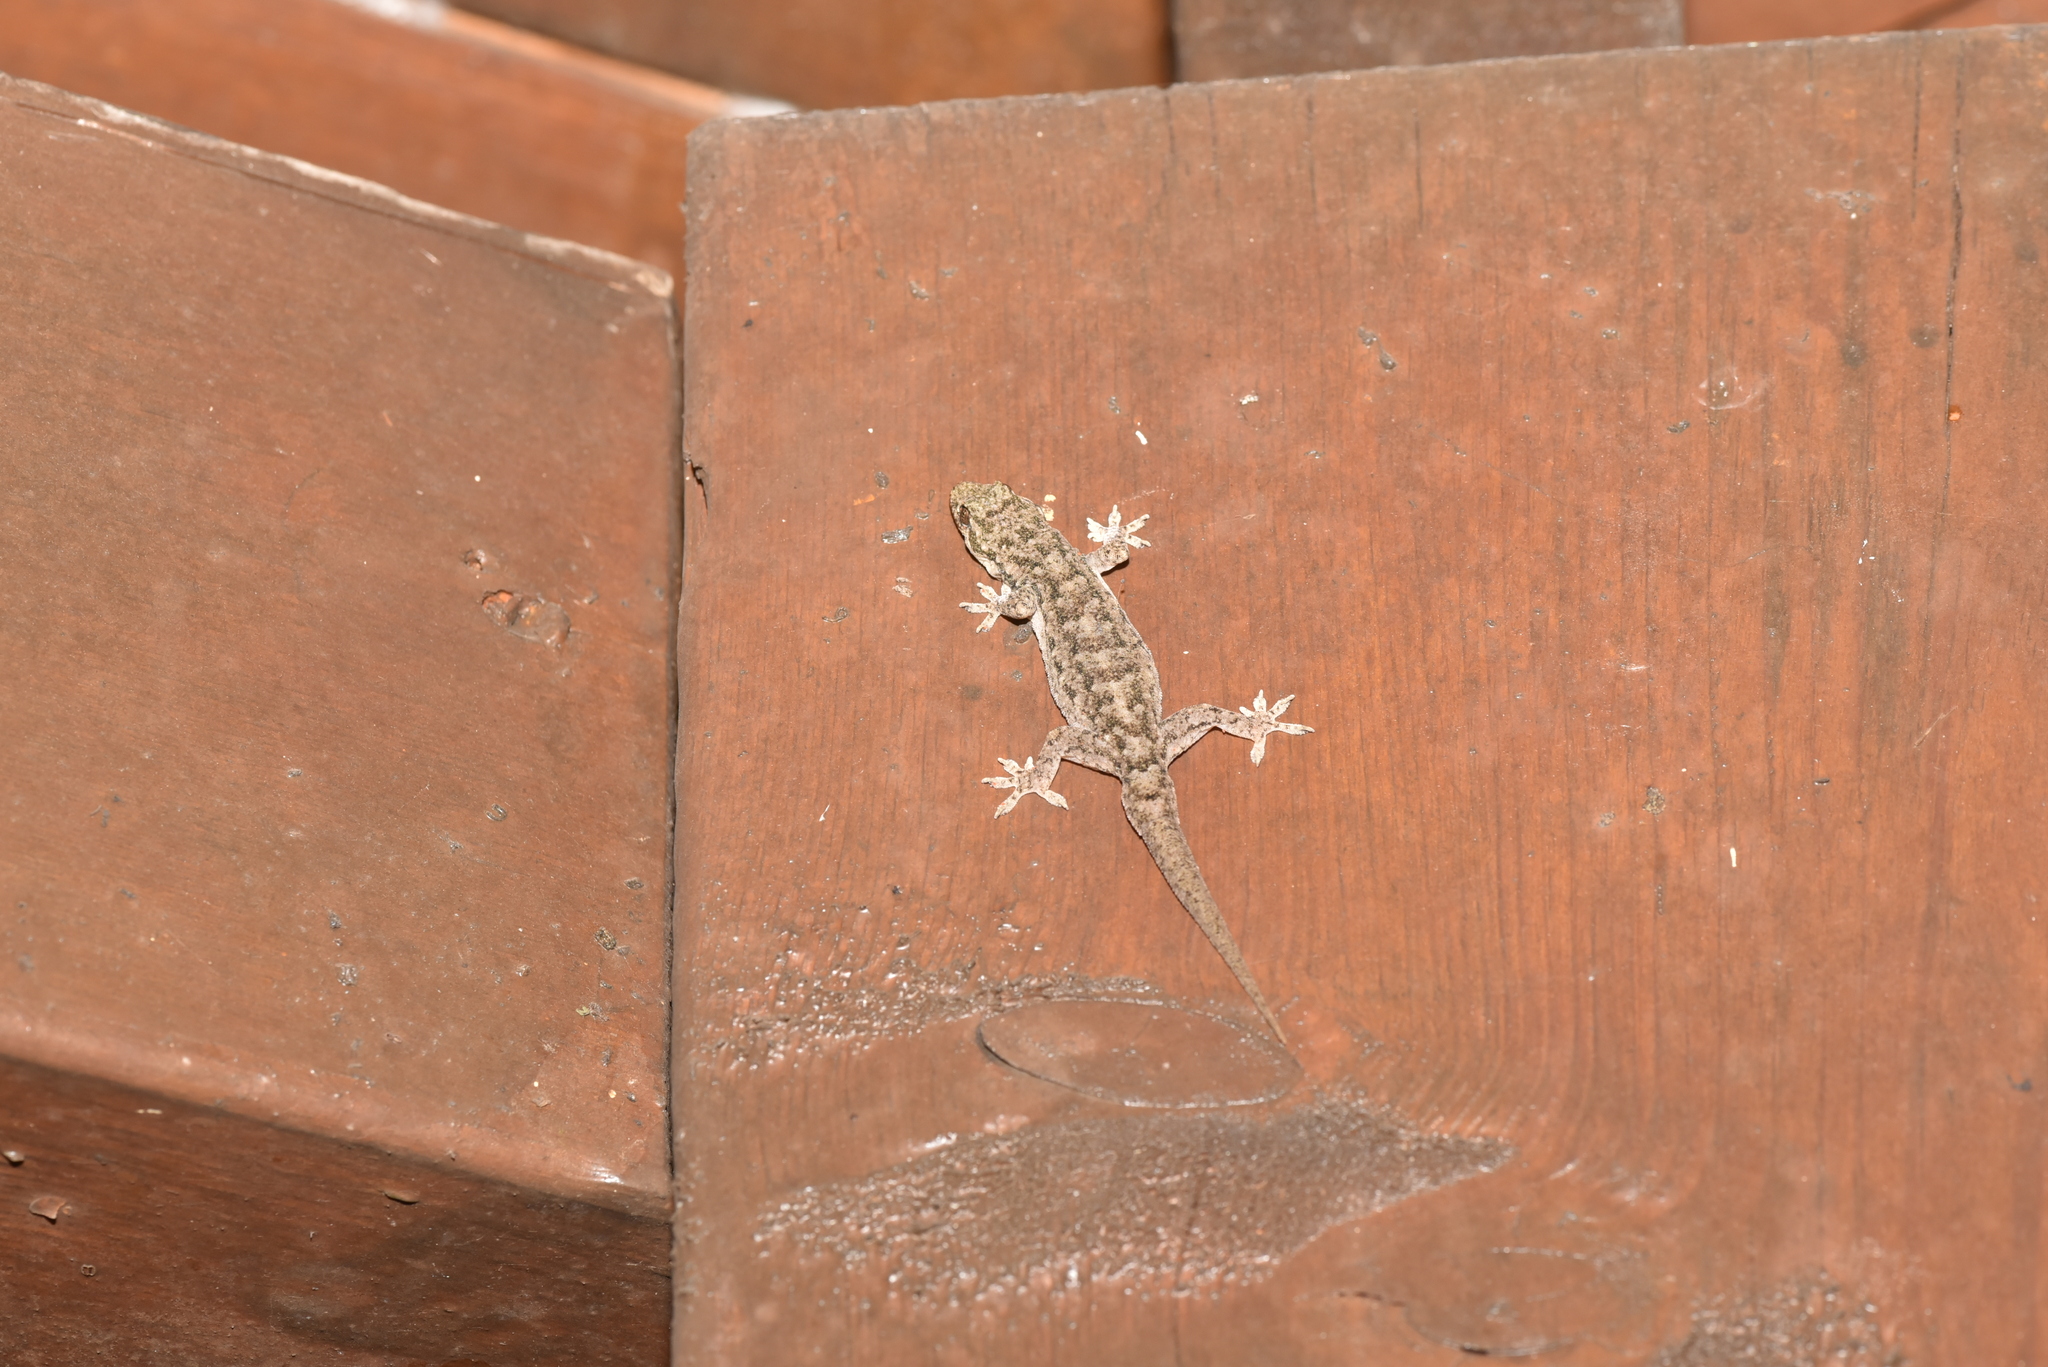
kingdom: Animalia
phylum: Chordata
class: Squamata
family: Gekkonidae
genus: Hemidactylus
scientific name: Hemidactylus bowringii
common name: Oriental leaf-toed gecko
